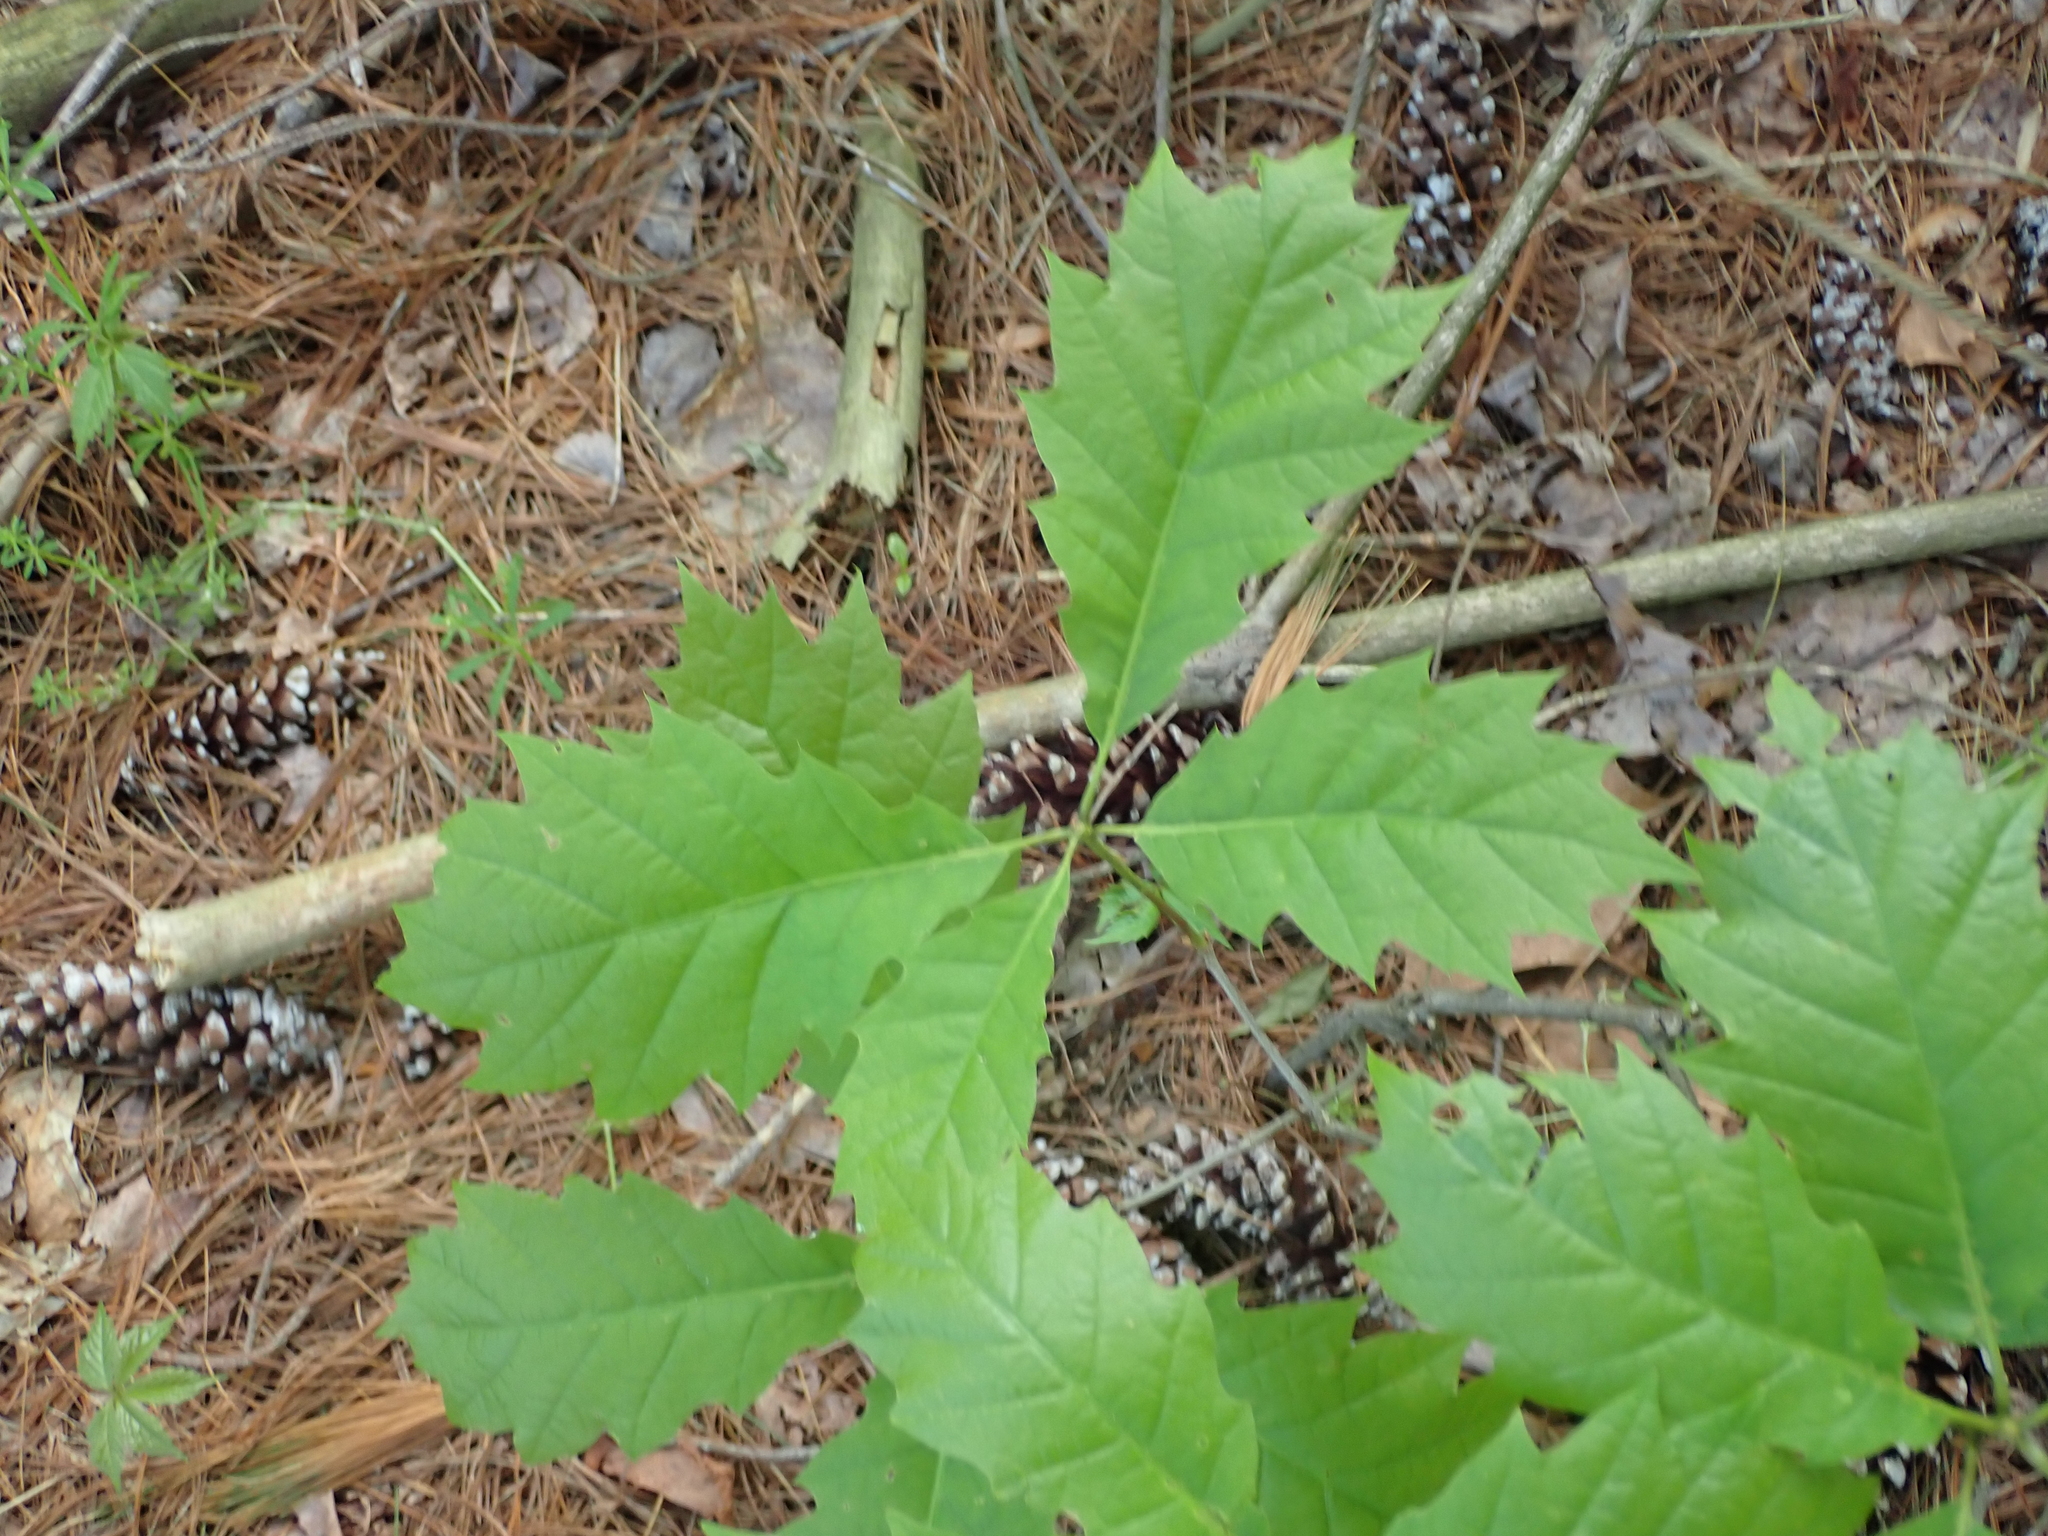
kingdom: Plantae
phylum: Tracheophyta
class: Magnoliopsida
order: Fagales
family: Fagaceae
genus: Quercus
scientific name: Quercus rubra
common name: Red oak
